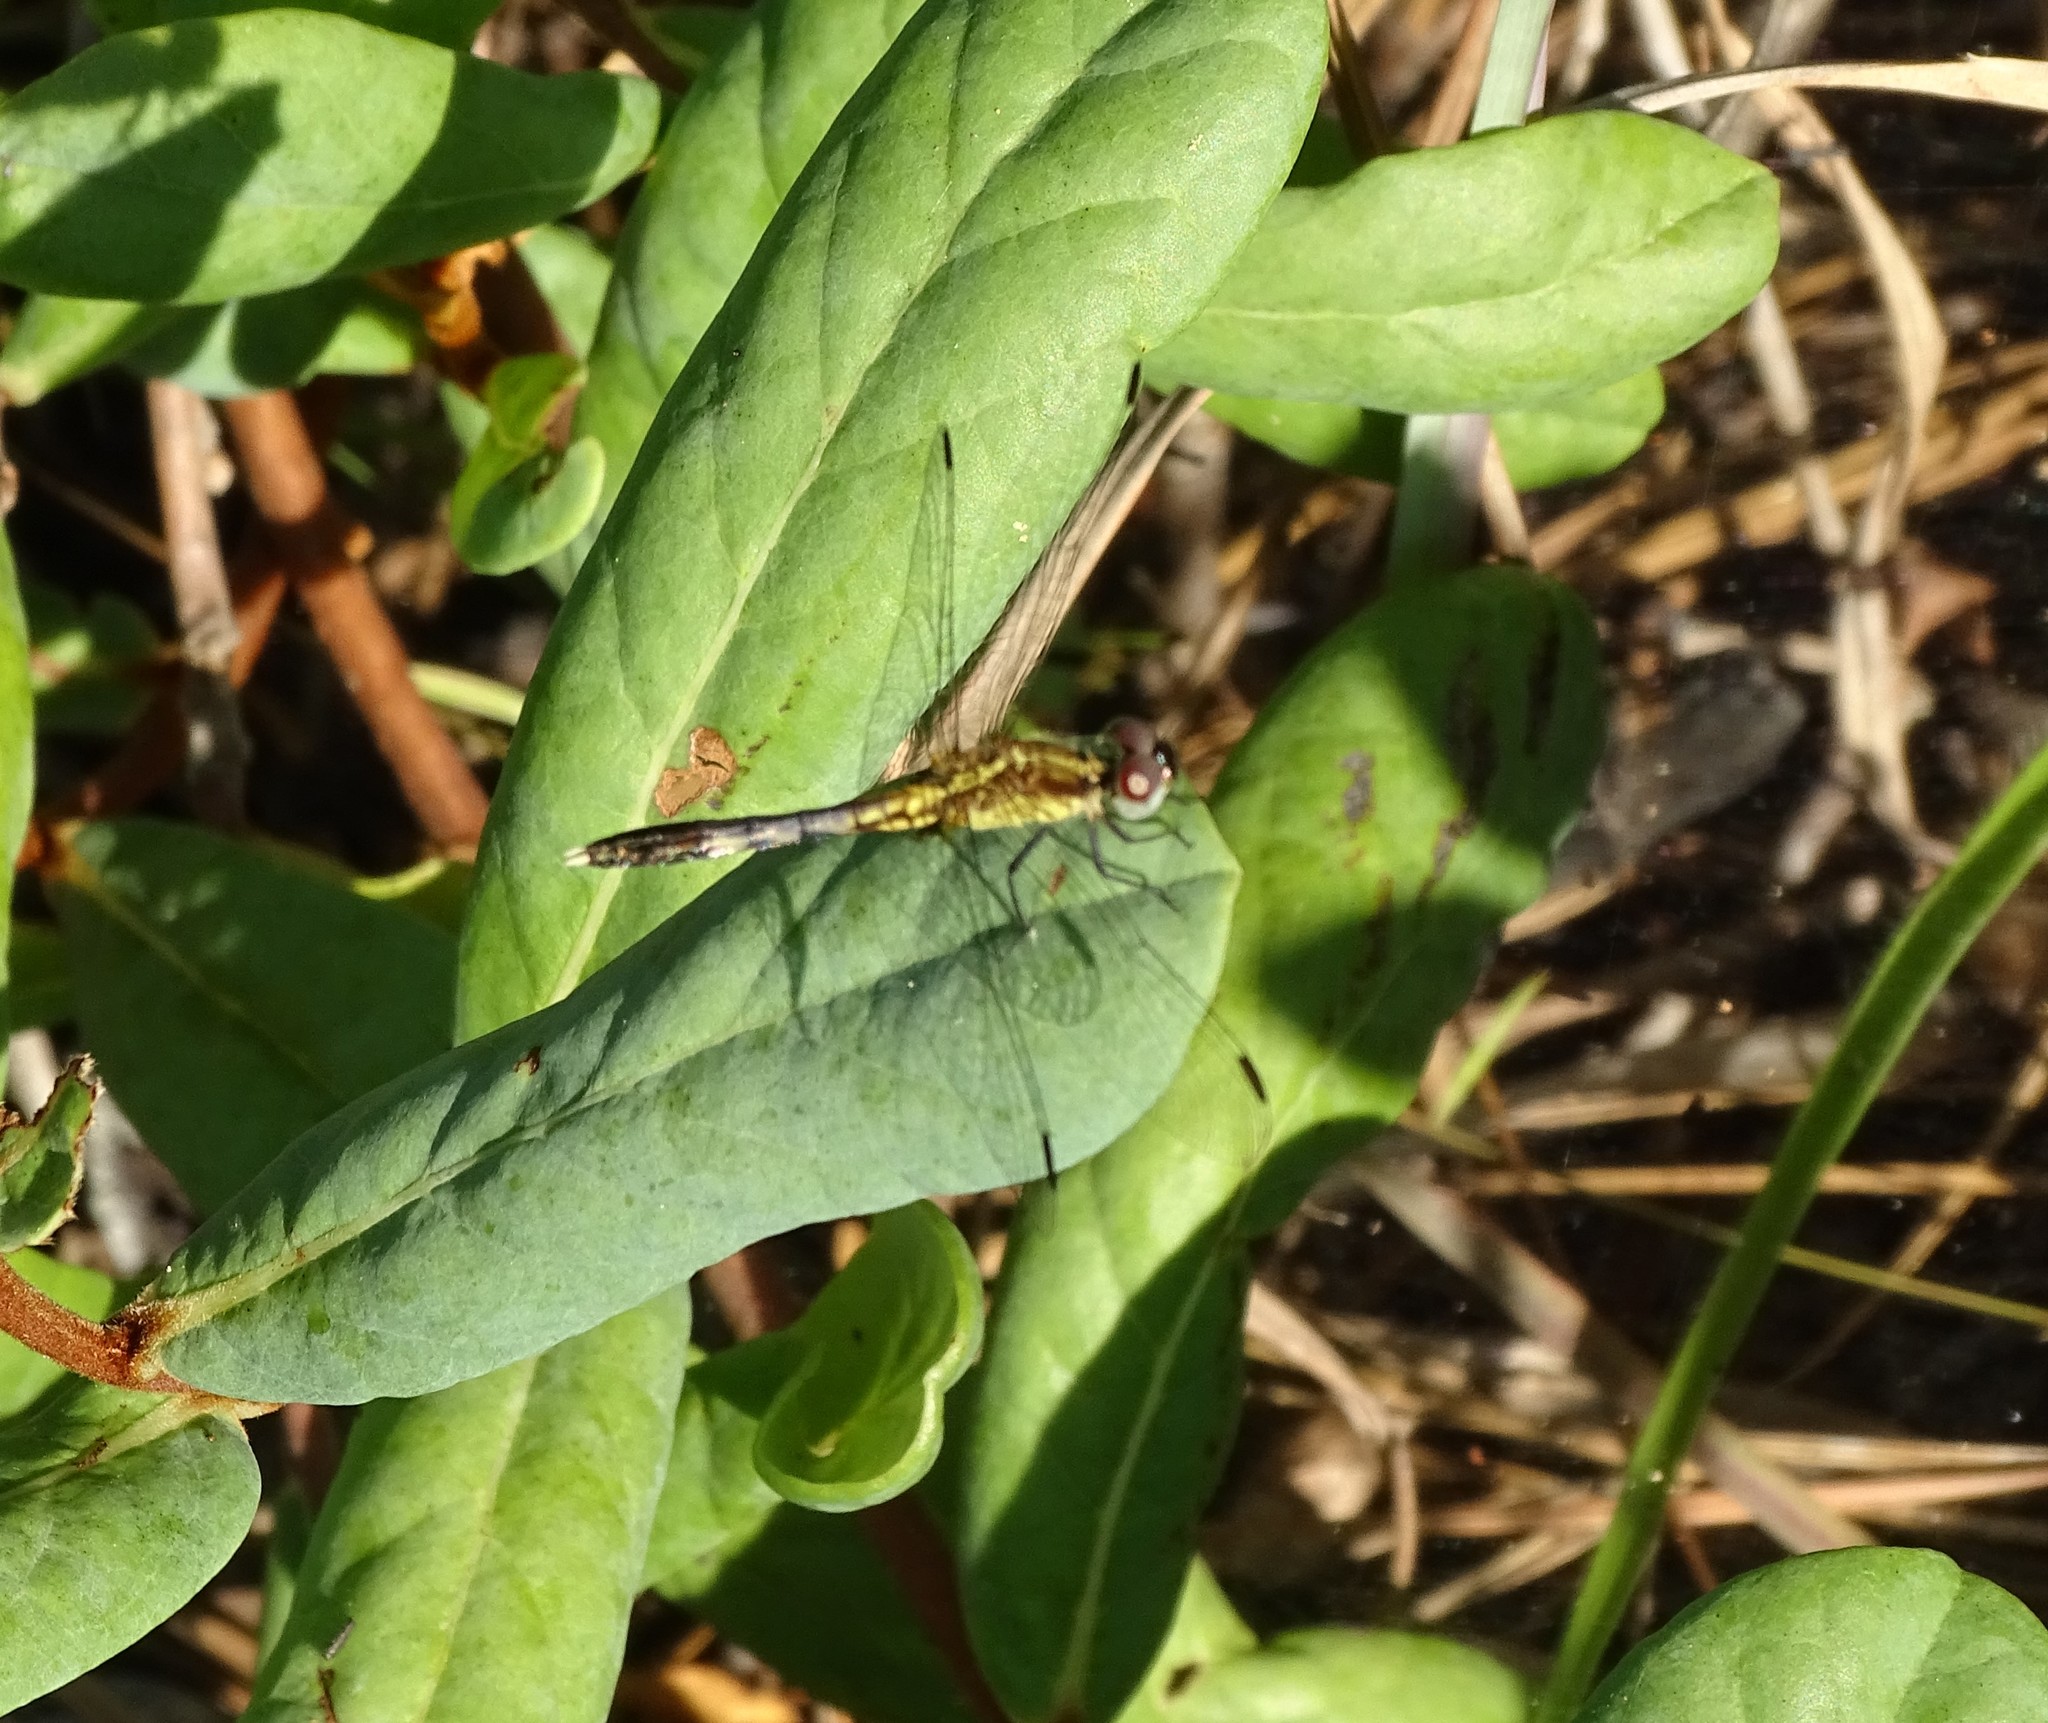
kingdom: Animalia
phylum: Arthropoda
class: Insecta
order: Odonata
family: Libellulidae
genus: Erythrodiplax
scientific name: Erythrodiplax minuscula
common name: Little blue dragonlet
